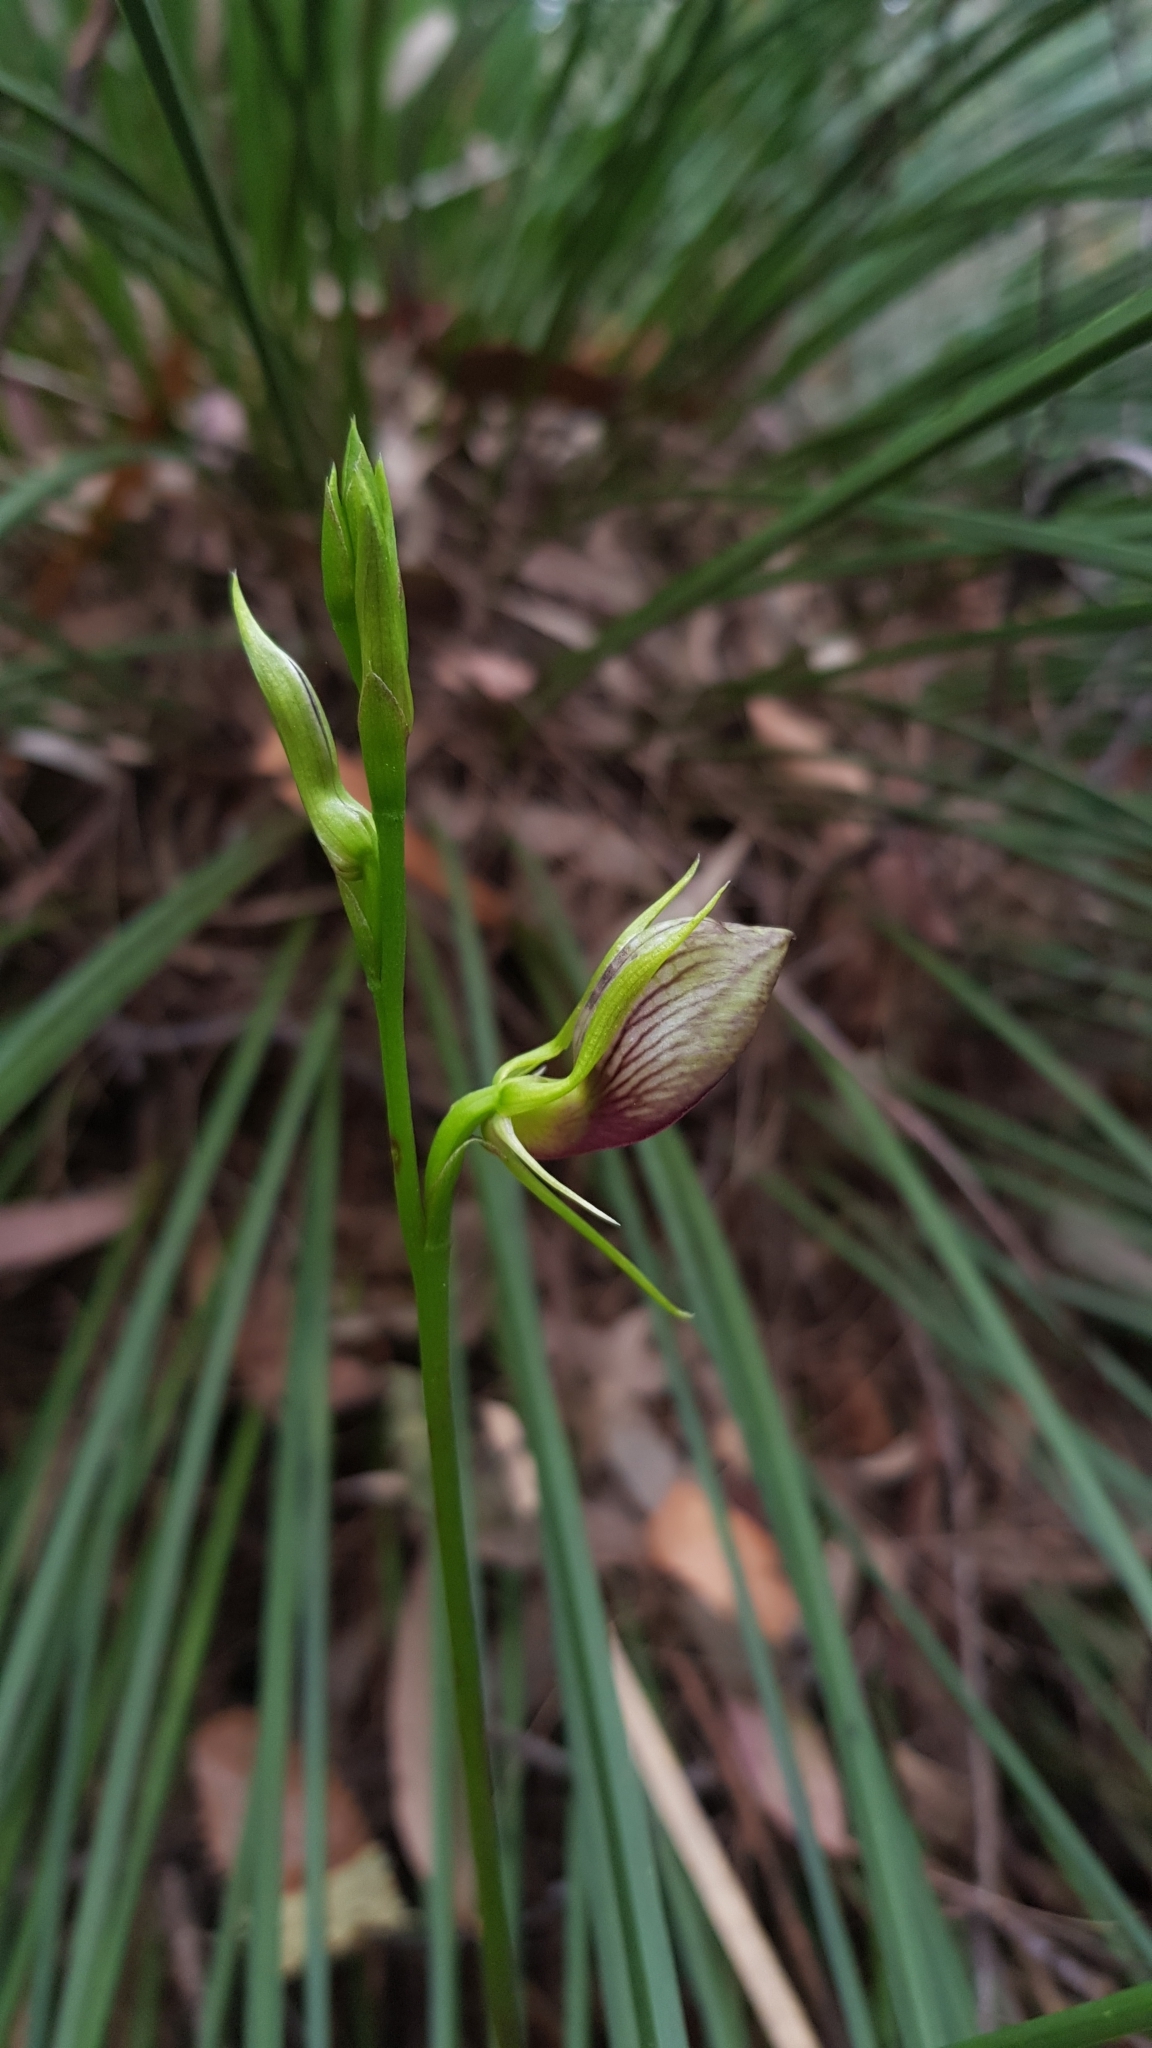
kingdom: Plantae
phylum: Tracheophyta
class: Liliopsida
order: Asparagales
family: Orchidaceae
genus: Cryptostylis
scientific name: Cryptostylis erecta
